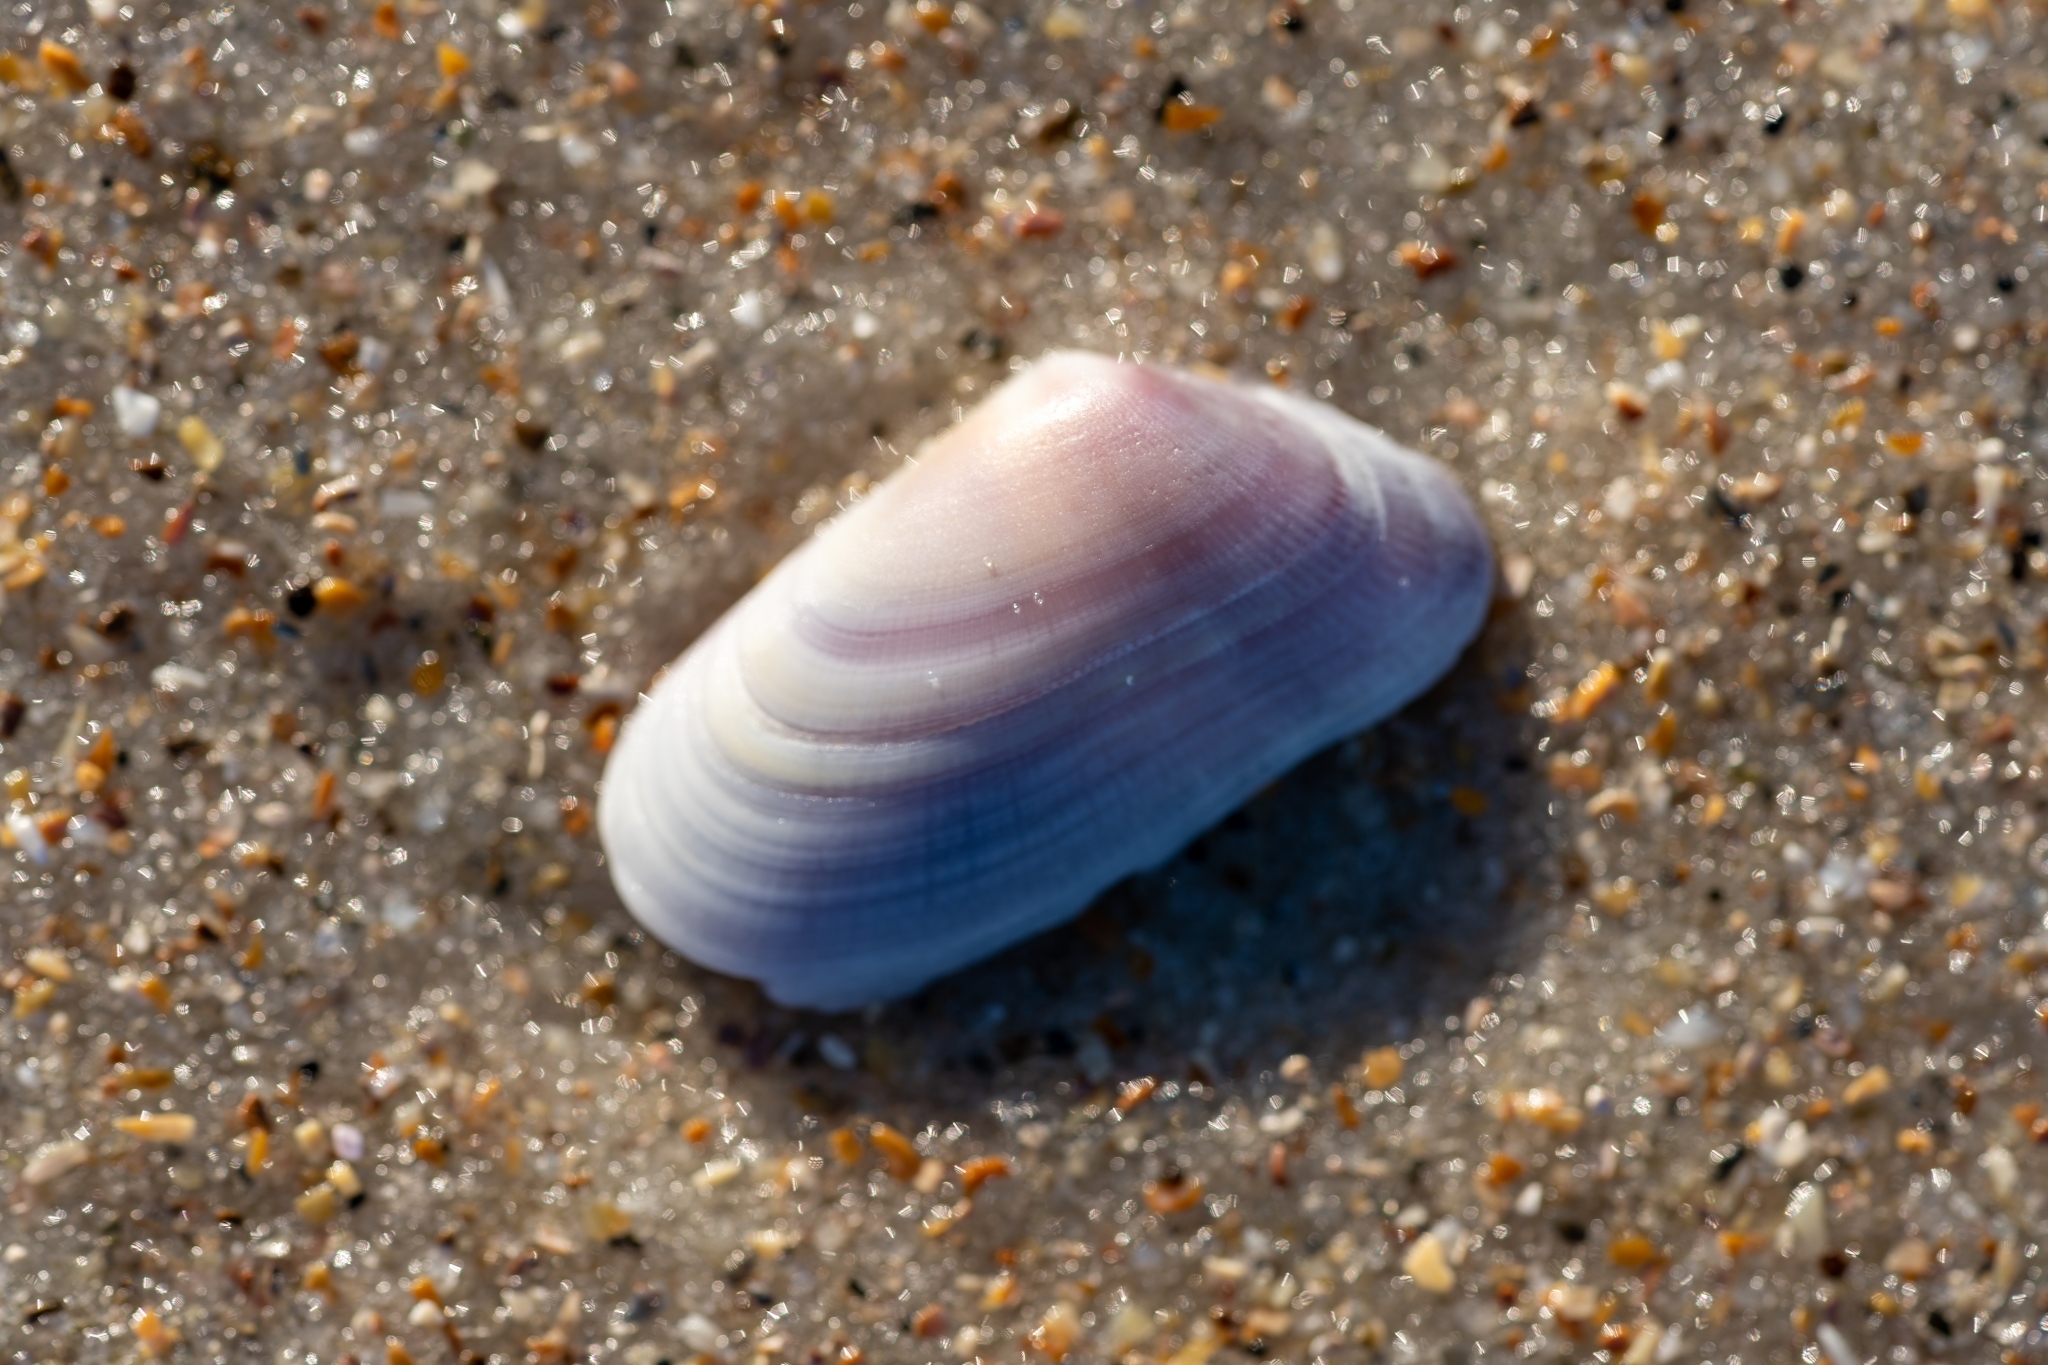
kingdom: Animalia
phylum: Mollusca
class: Bivalvia
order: Cardiida
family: Donacidae
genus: Donax
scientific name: Donax variabilis
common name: Butterfly shell
